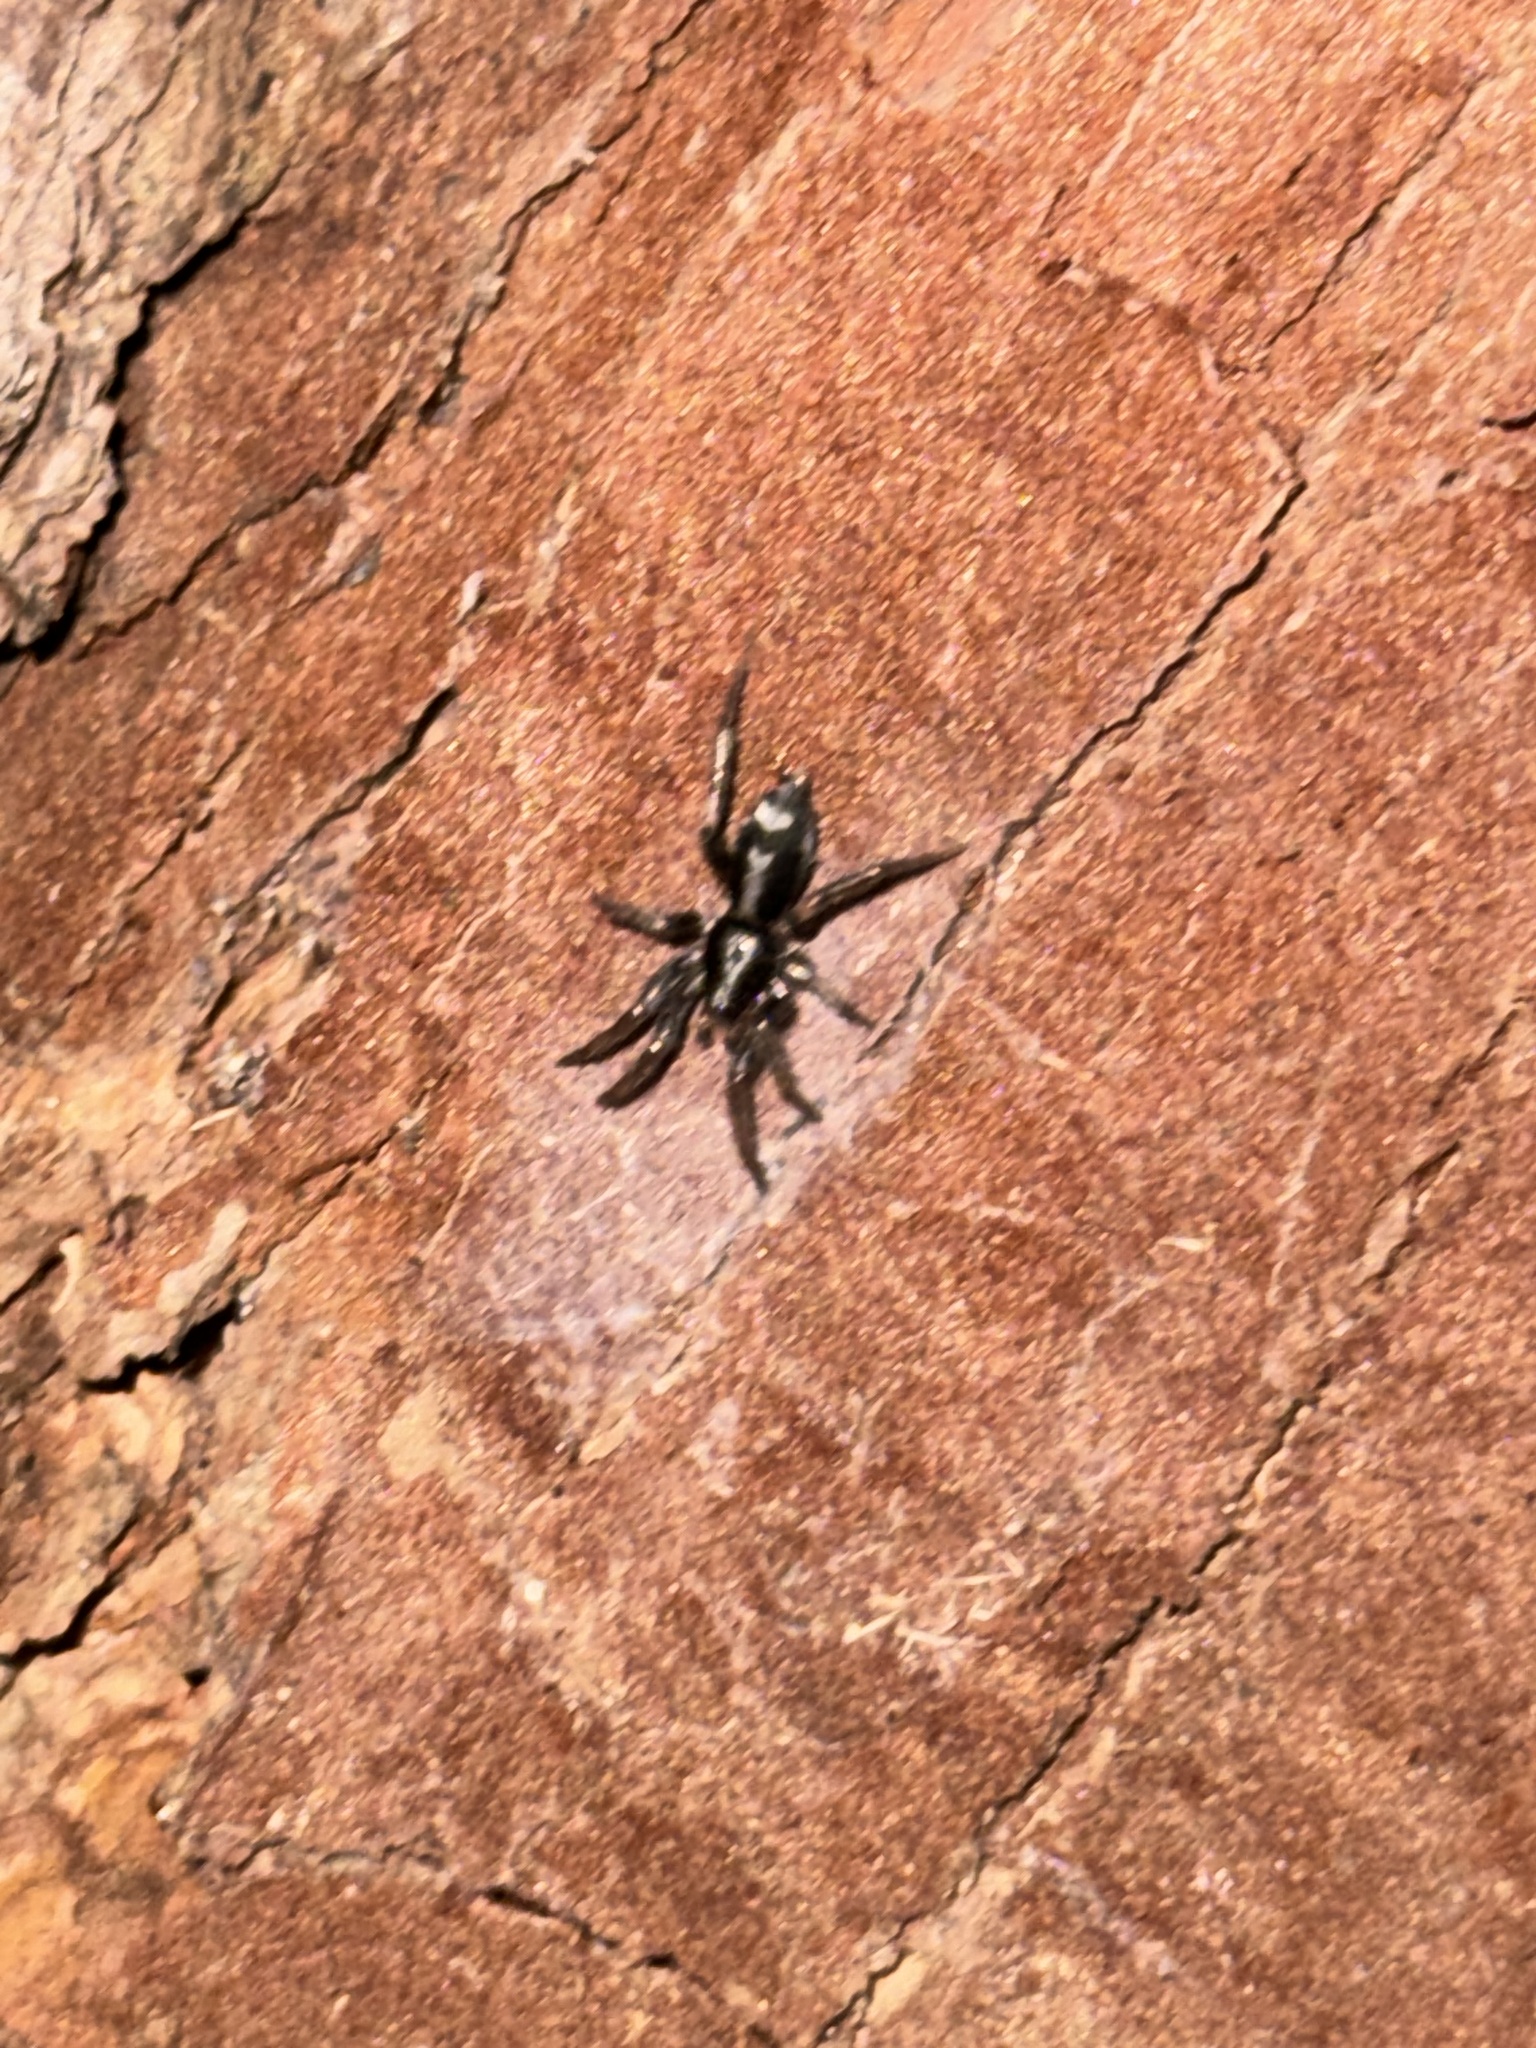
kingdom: Animalia
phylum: Arthropoda
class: Arachnida
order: Araneae
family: Gnaphosidae
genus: Herpyllus
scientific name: Herpyllus ecclesiasticus
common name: Eastern parson spider
